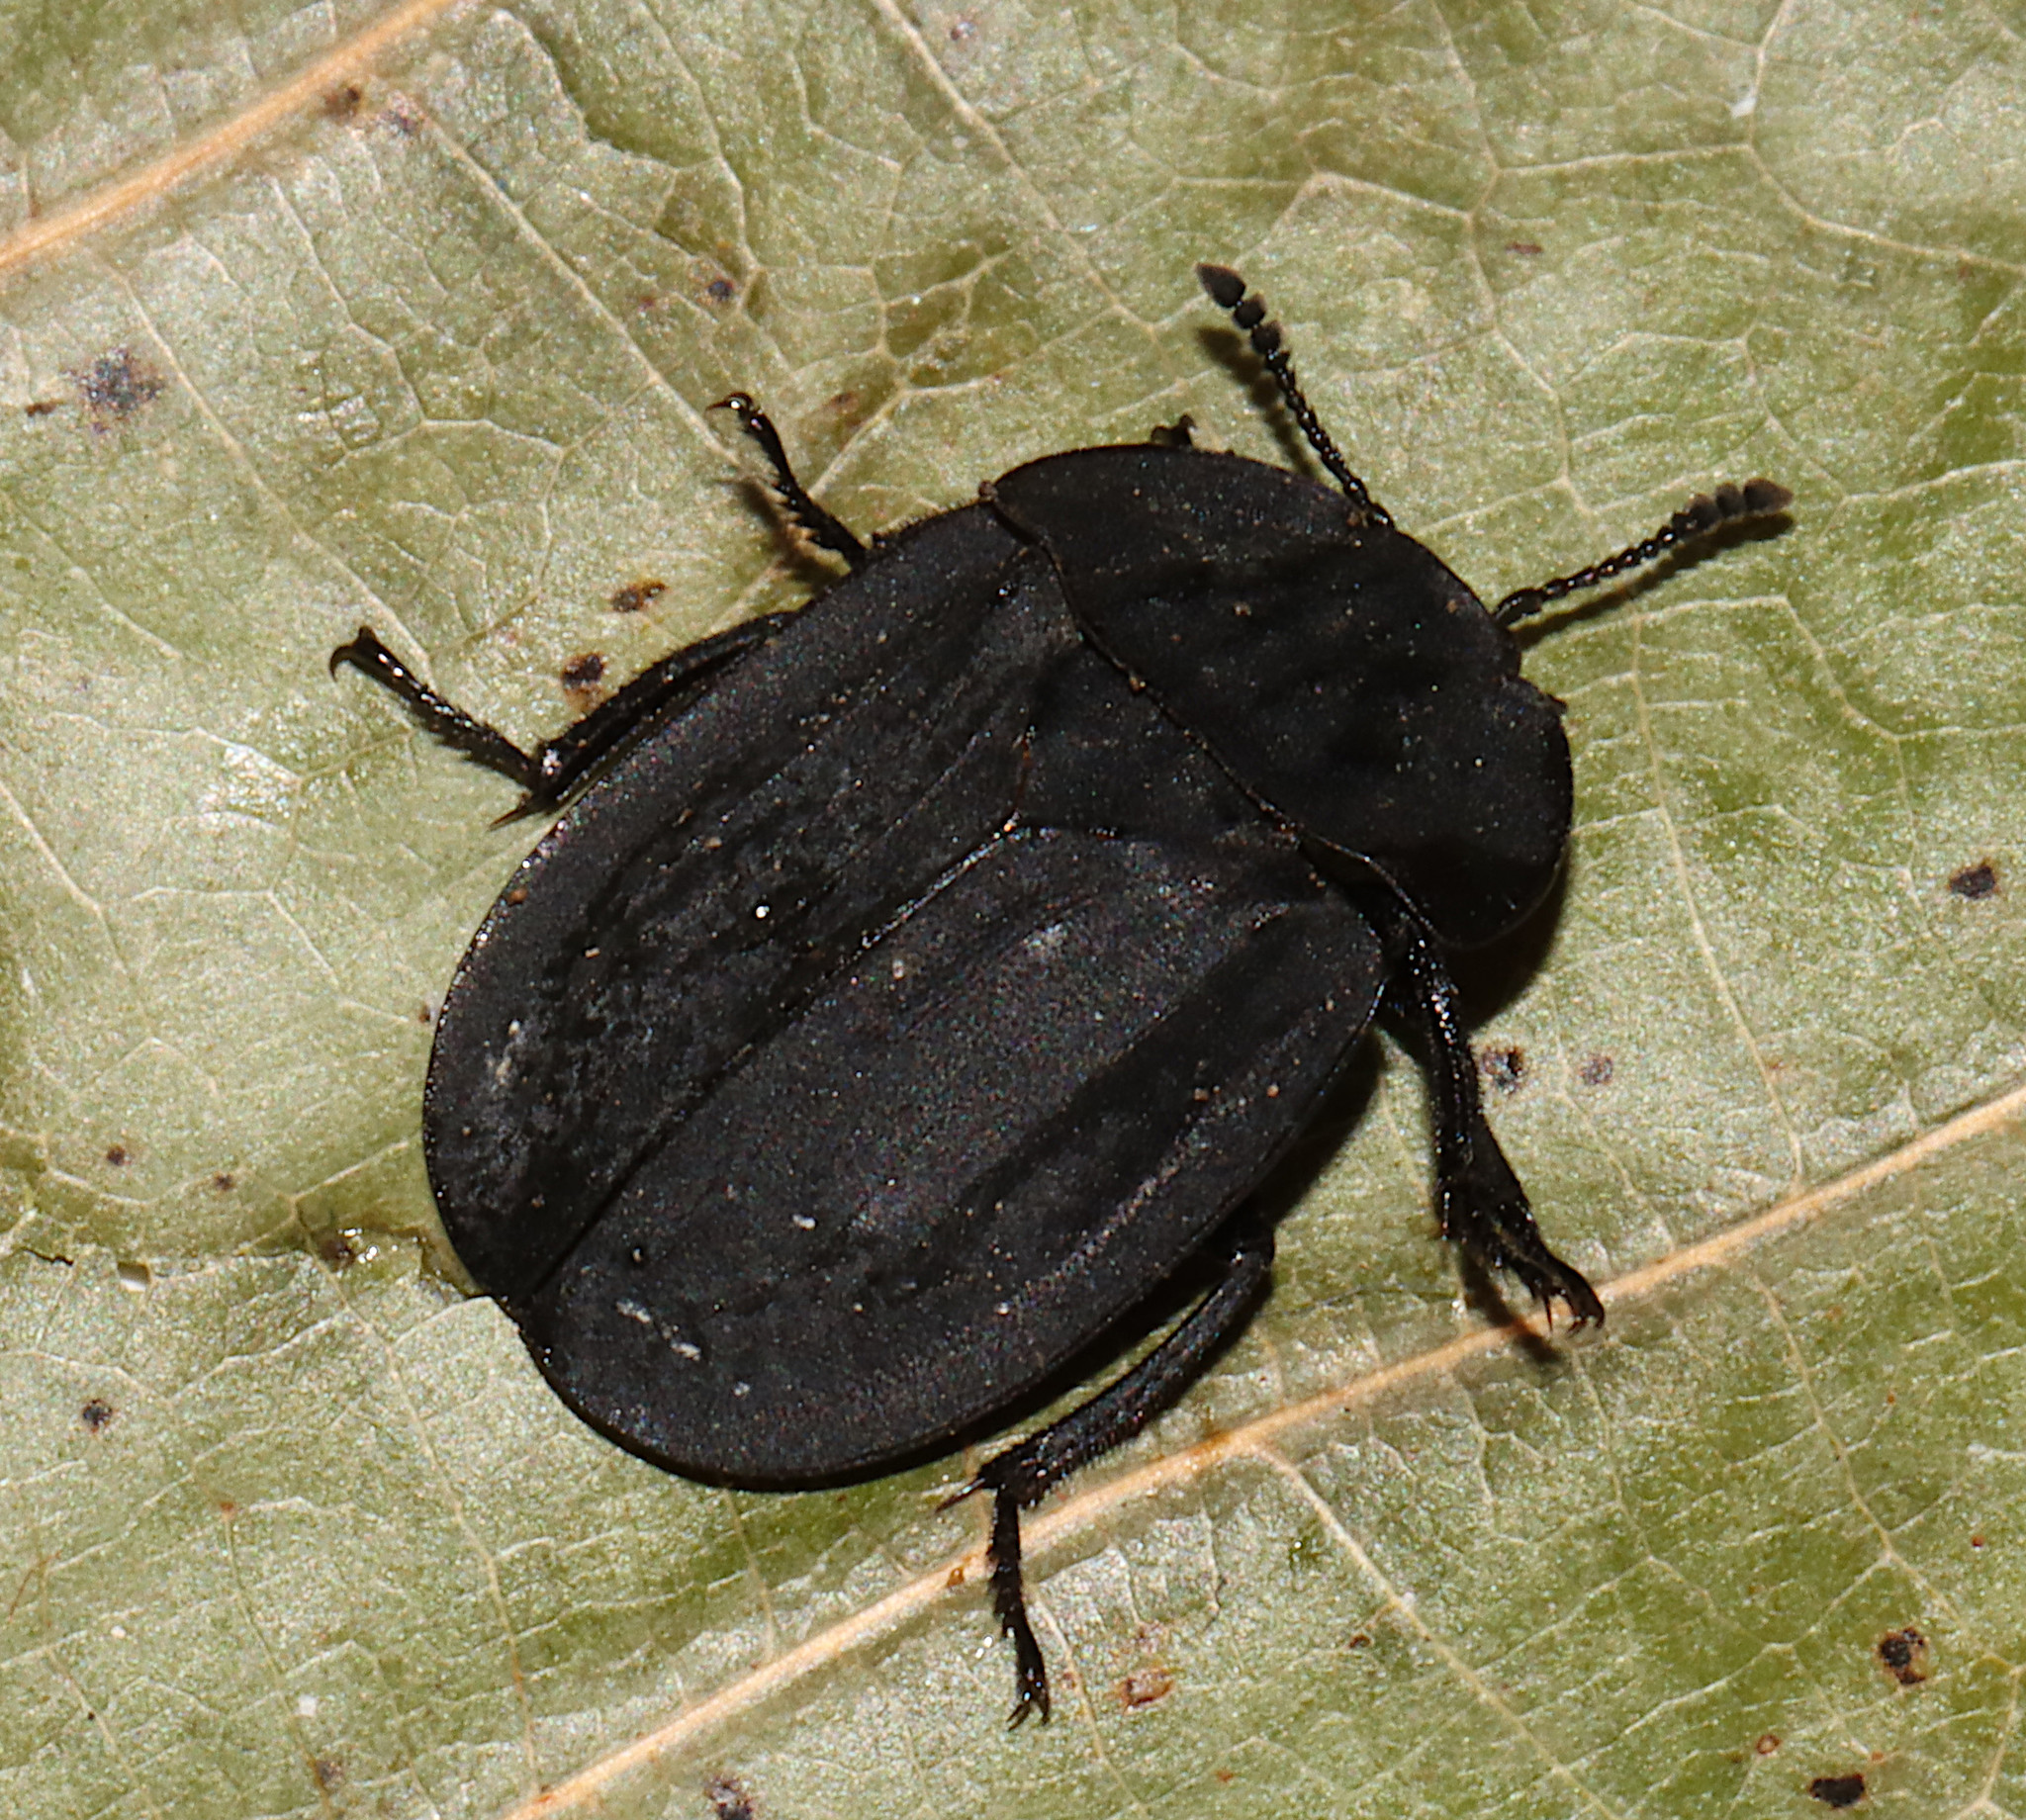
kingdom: Animalia
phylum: Arthropoda
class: Insecta
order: Coleoptera
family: Staphylinidae
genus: Oiceoptoma
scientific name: Oiceoptoma inaequale
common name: Ridged carrion beetle
